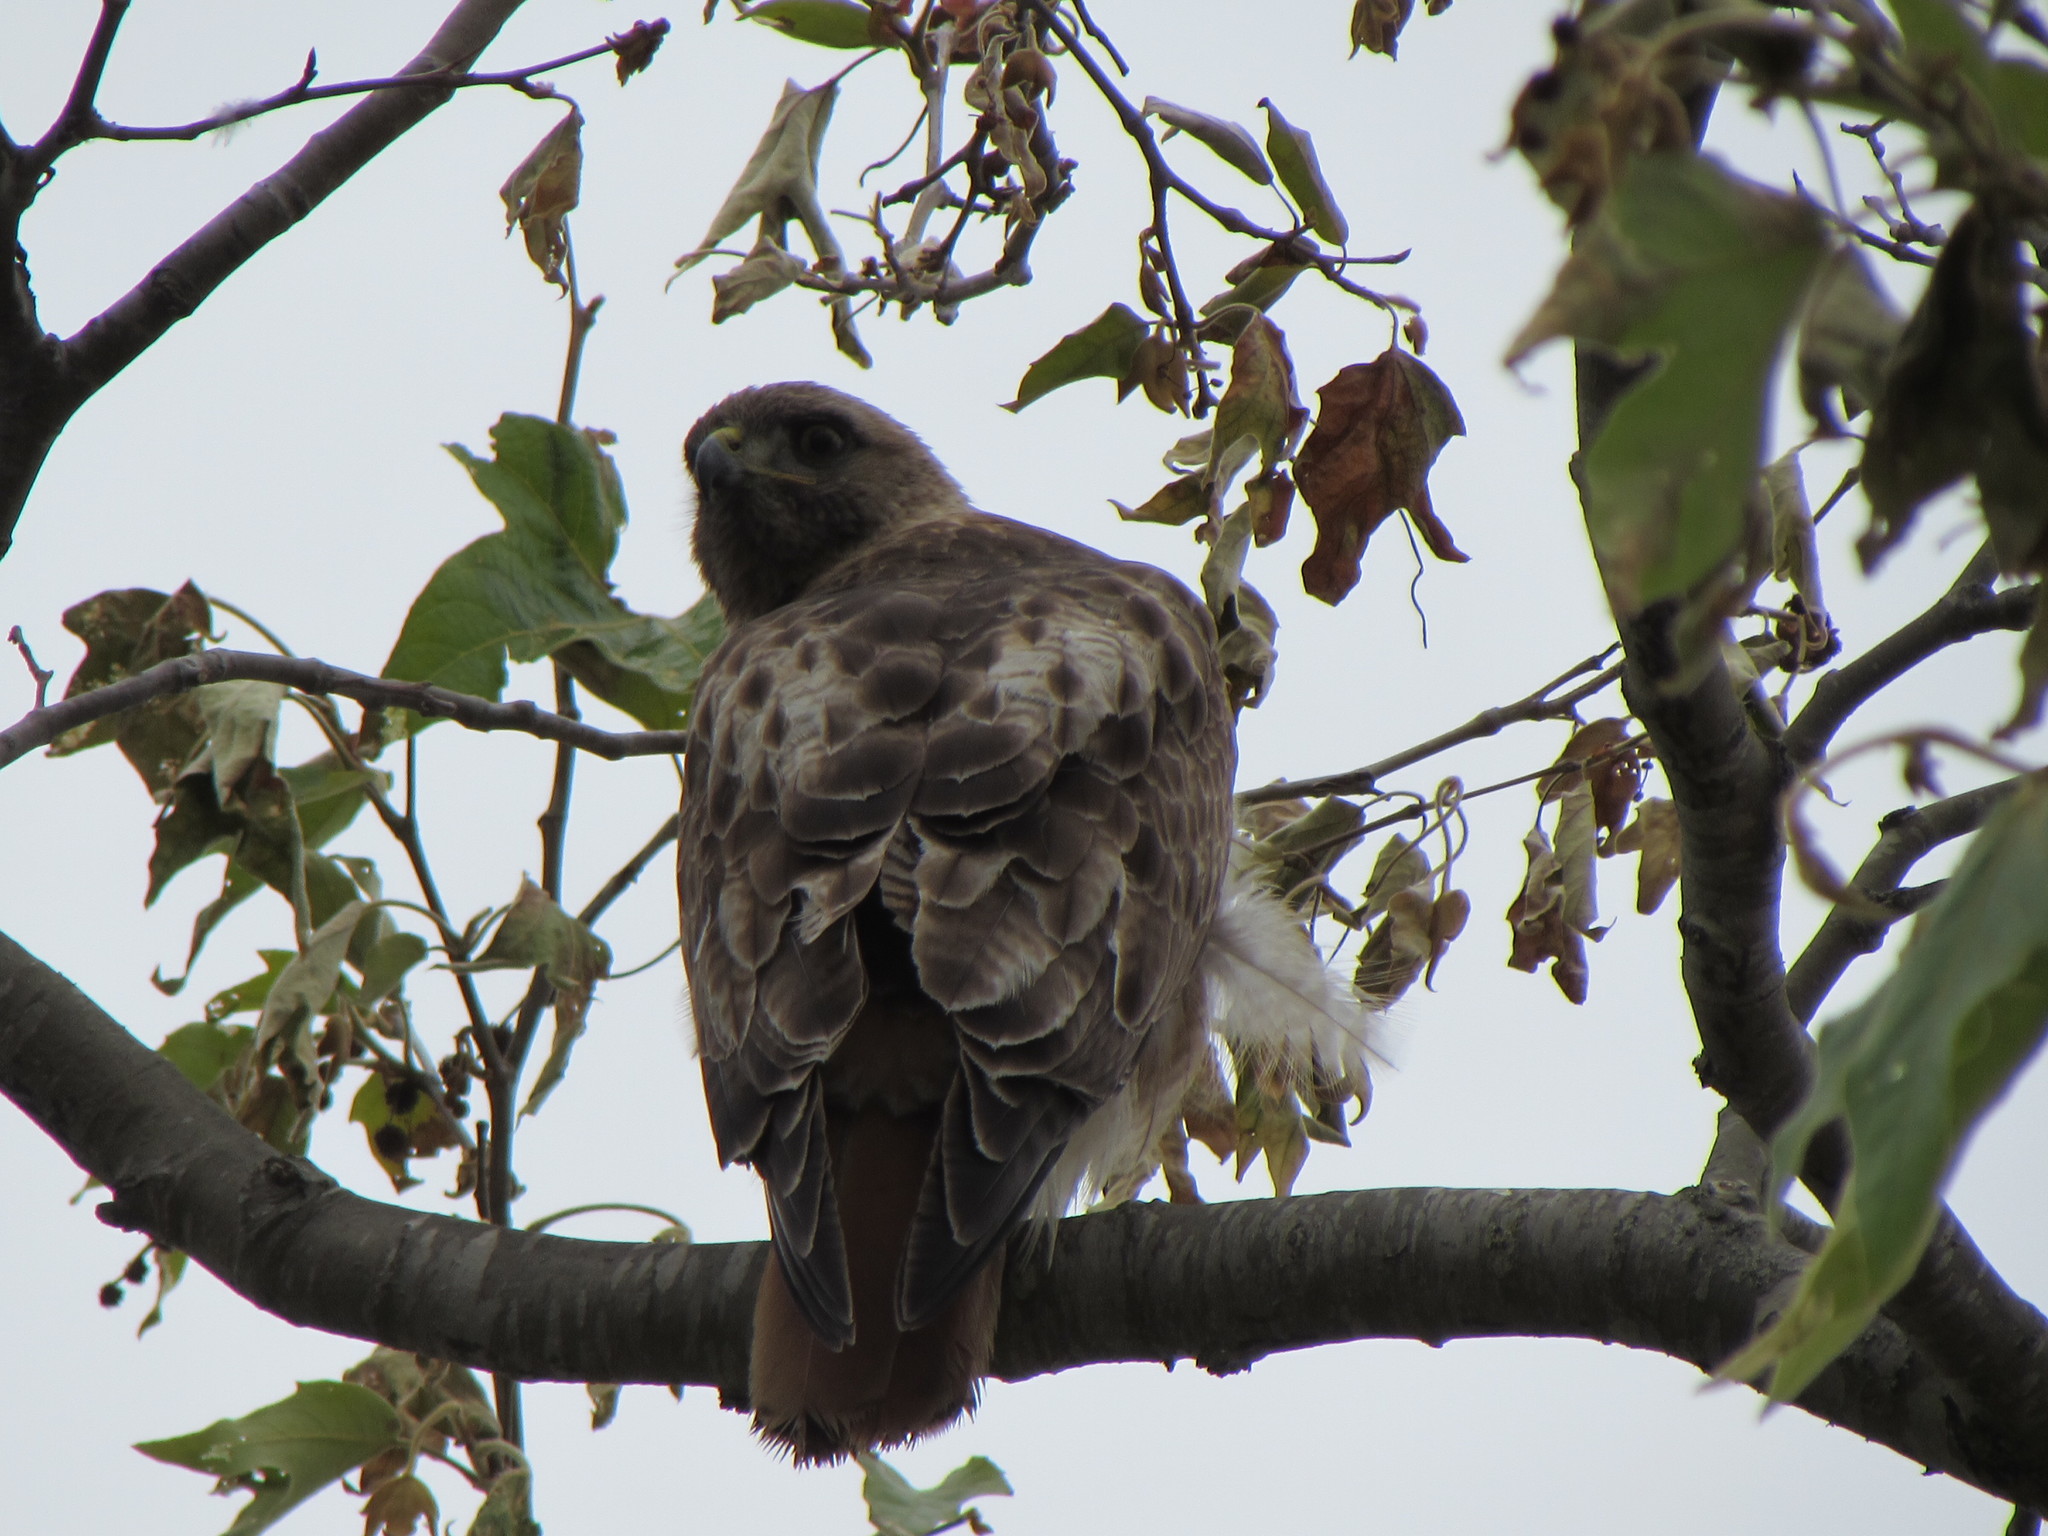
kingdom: Animalia
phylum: Chordata
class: Aves
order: Accipitriformes
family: Accipitridae
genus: Buteo
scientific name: Buteo jamaicensis
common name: Red-tailed hawk
